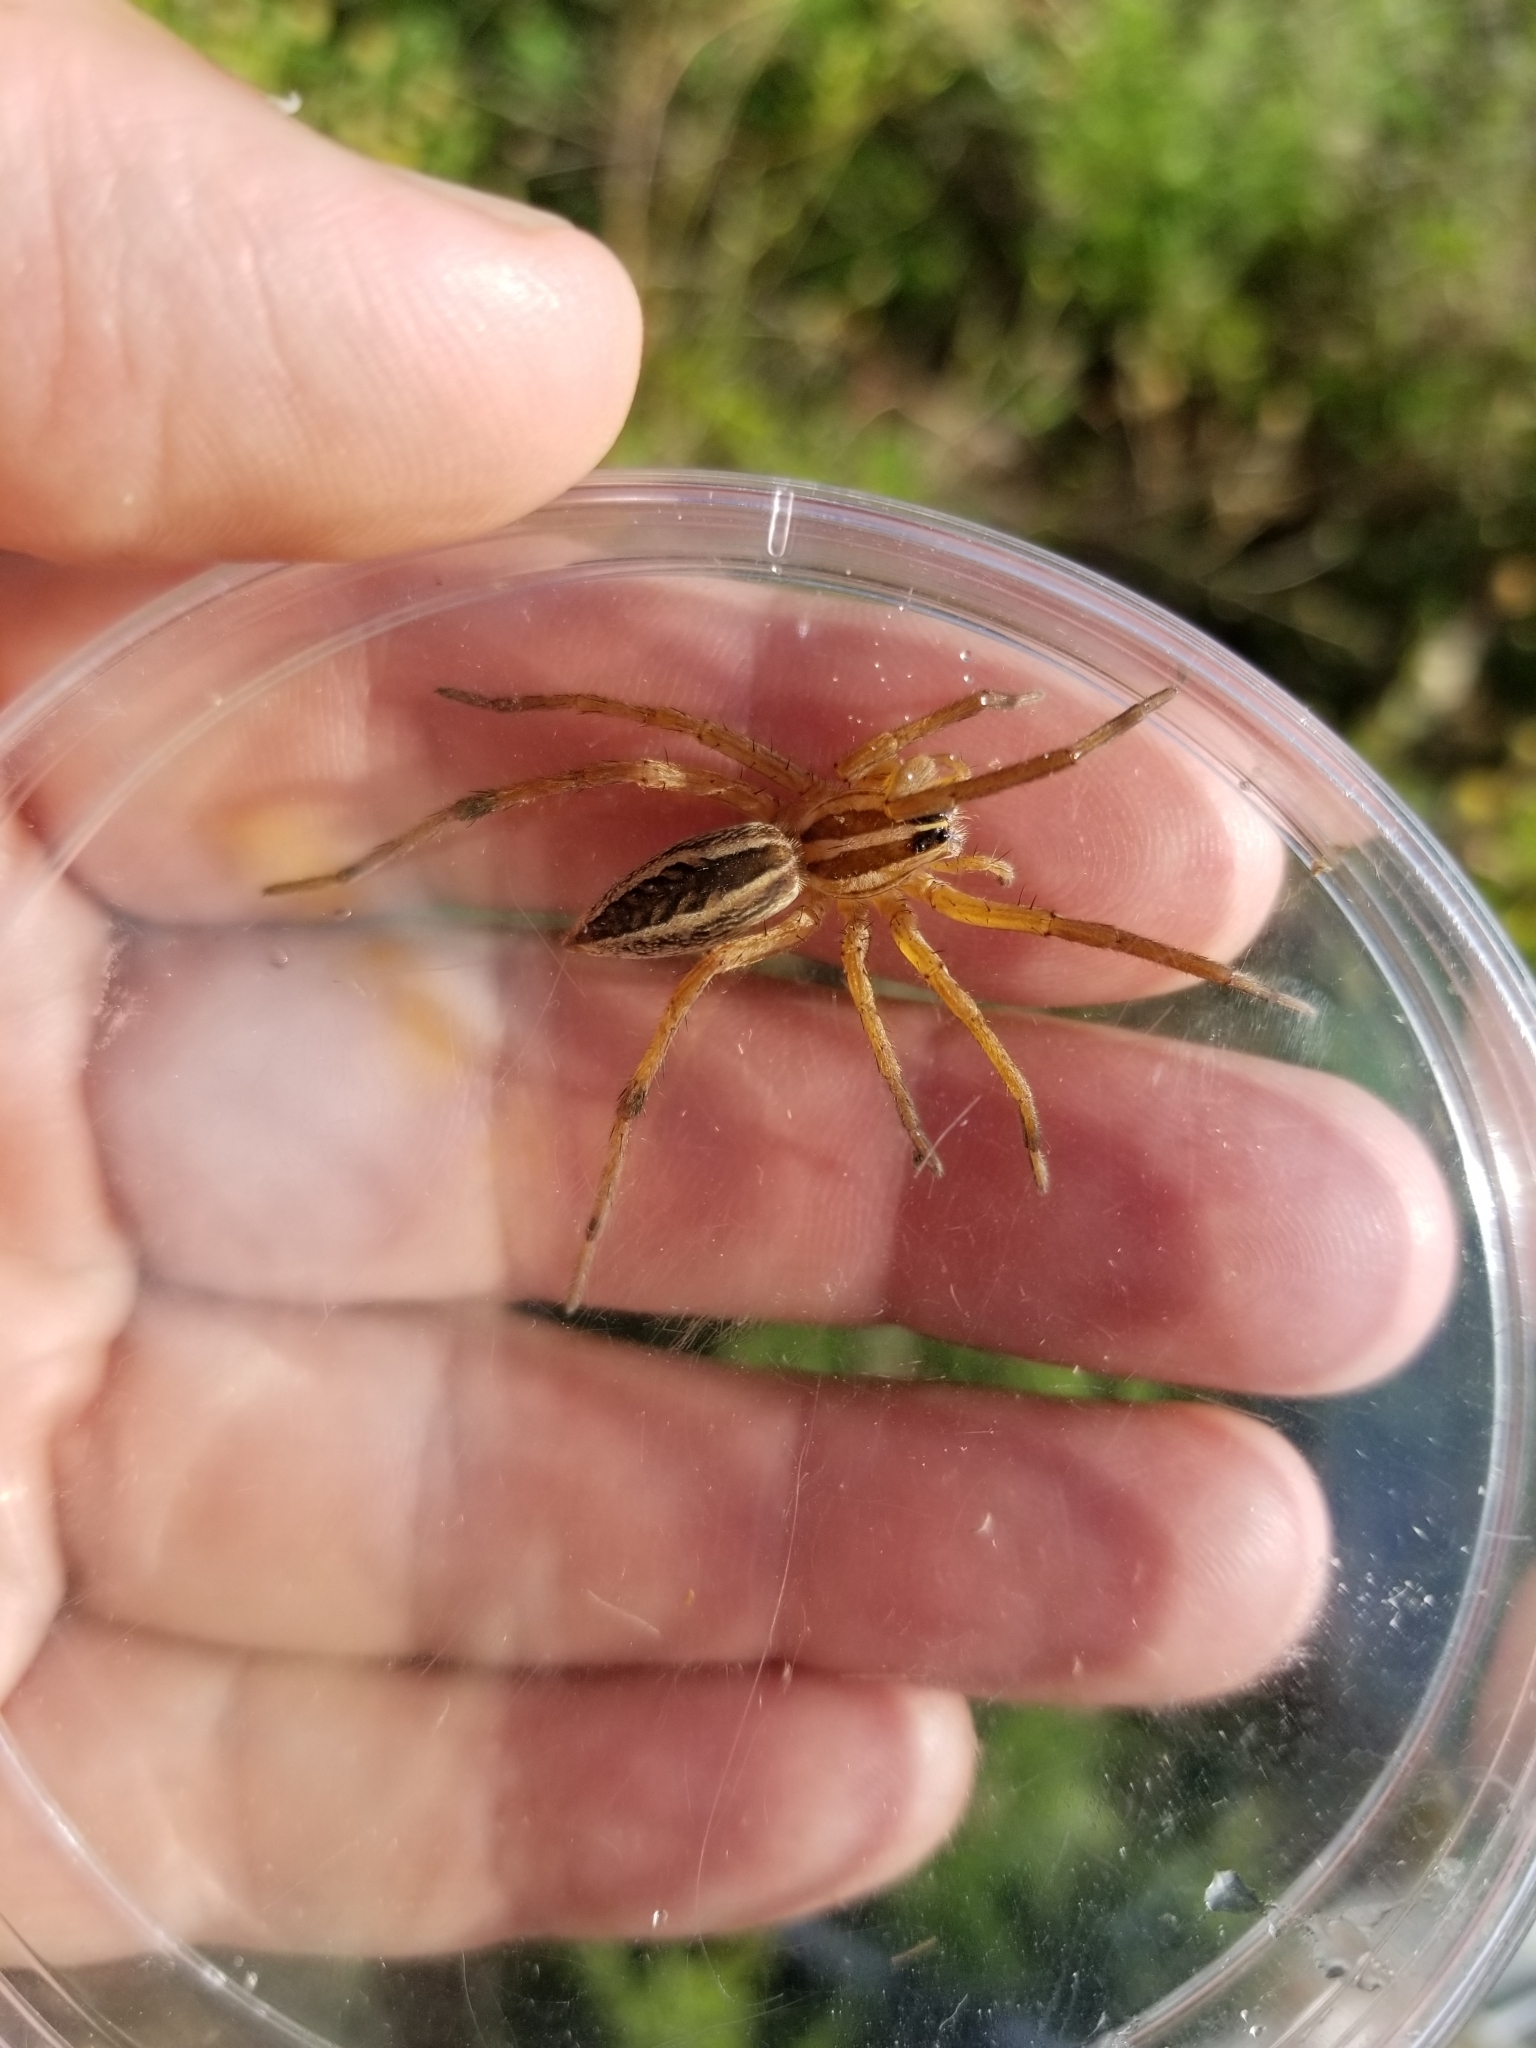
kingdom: Animalia
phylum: Arthropoda
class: Arachnida
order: Araneae
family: Lycosidae
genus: Rabidosa
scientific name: Rabidosa rabida
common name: Rabid wolf spider
